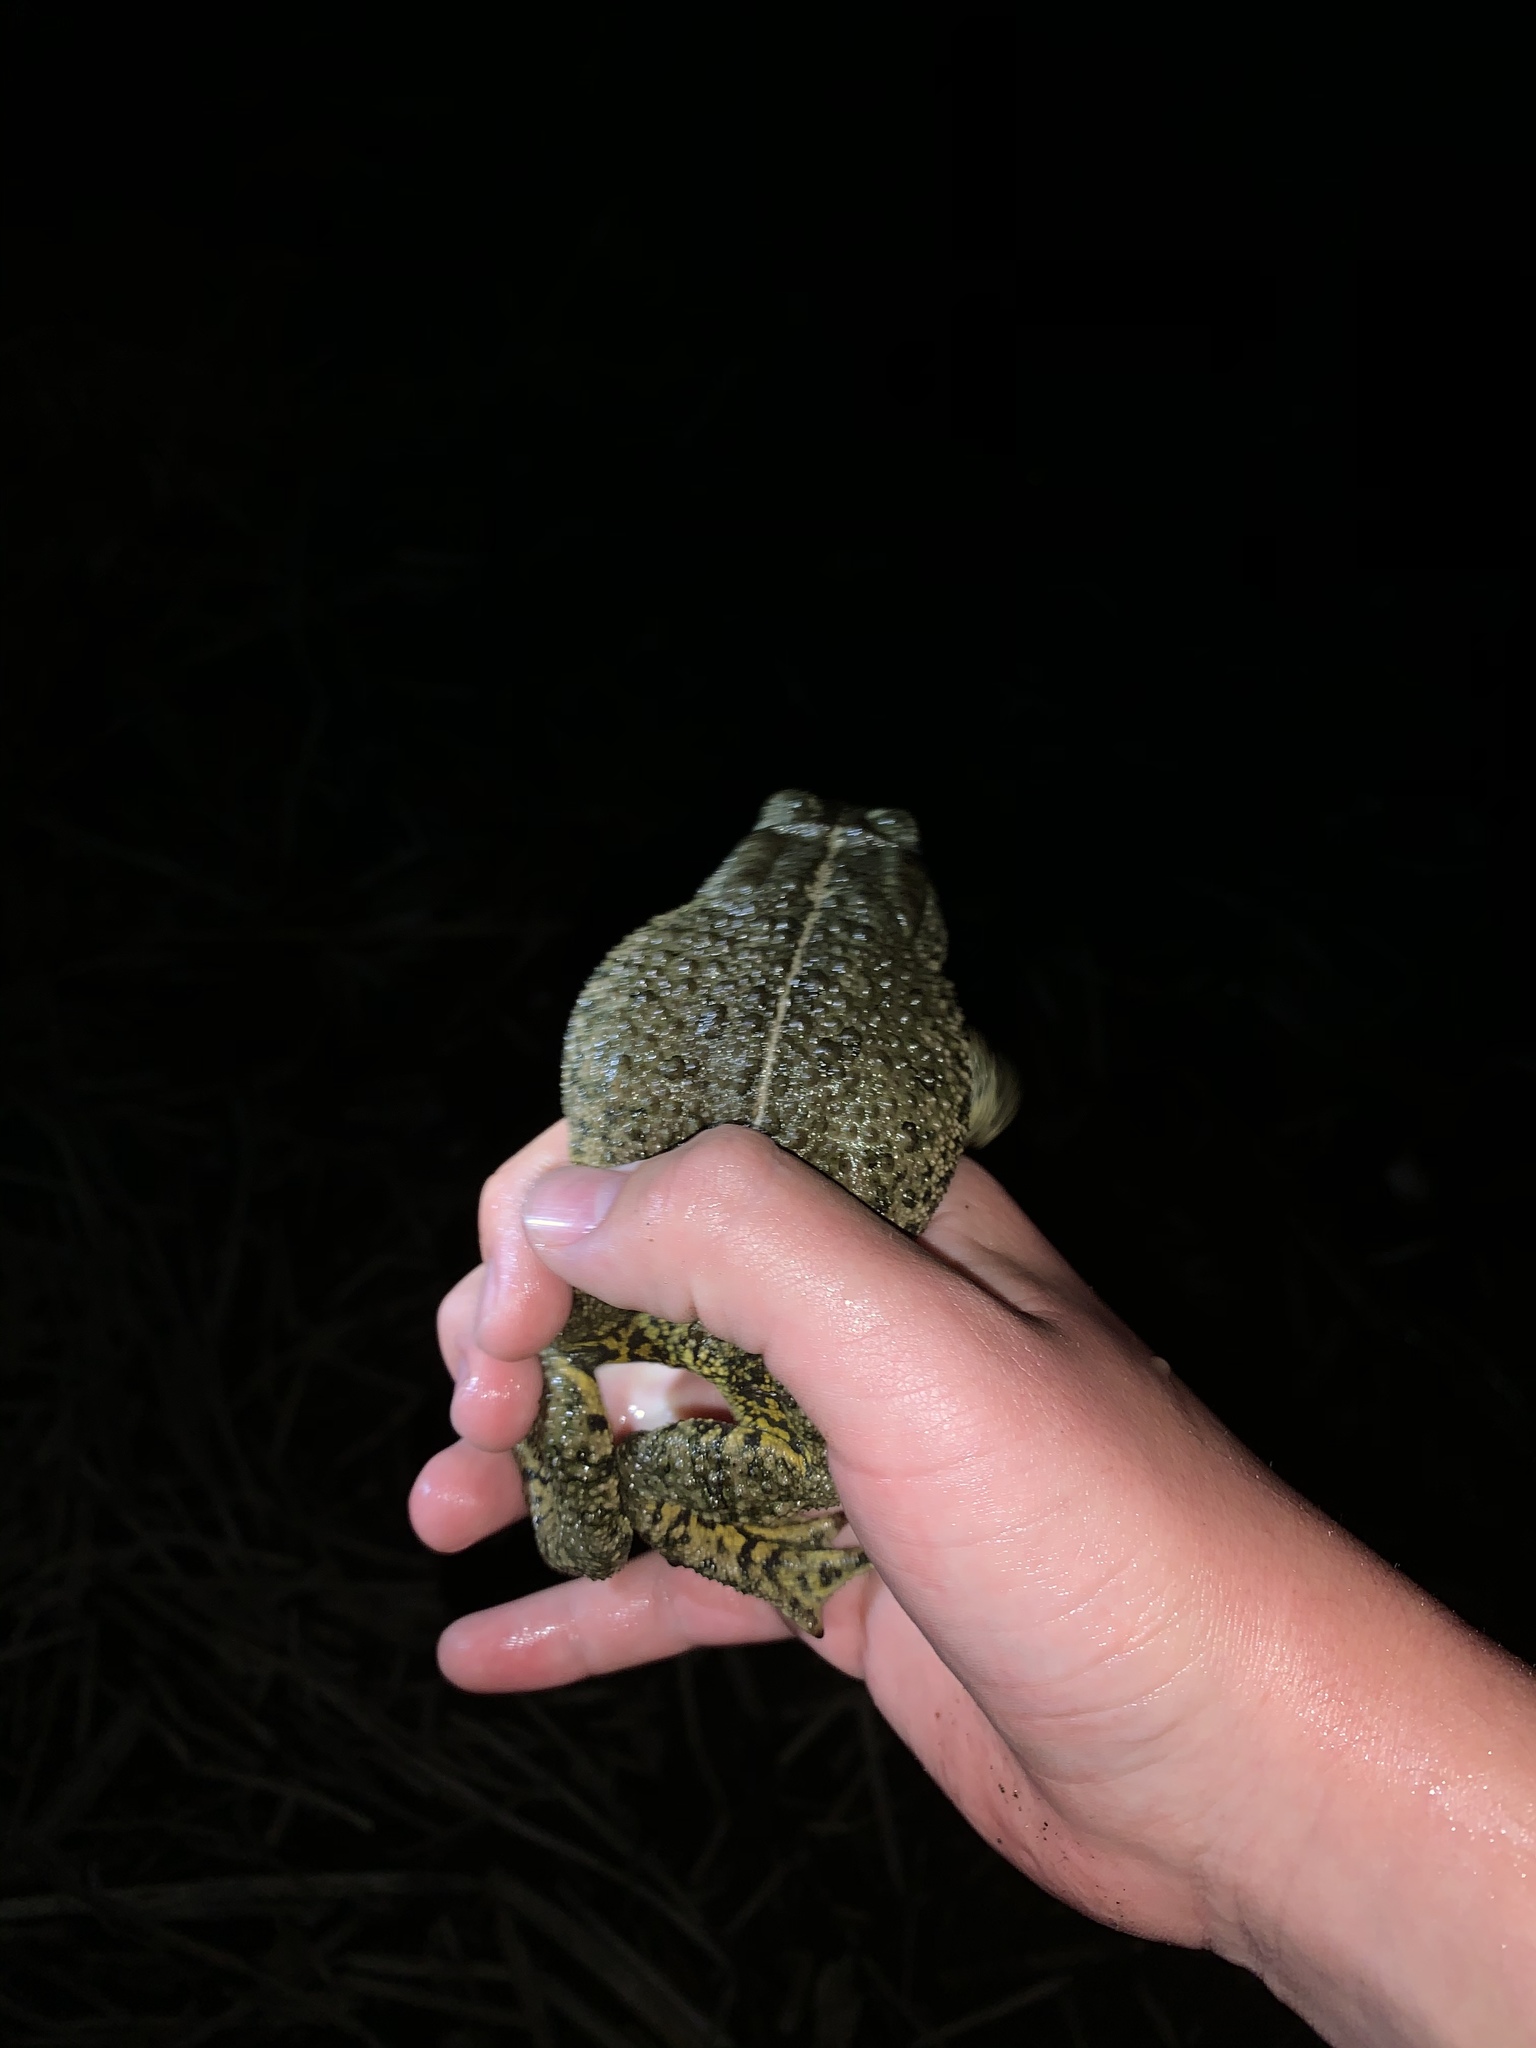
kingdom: Animalia
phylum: Chordata
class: Amphibia
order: Anura
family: Bufonidae
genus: Anaxyrus
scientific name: Anaxyrus woodhousii
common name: Woodhouse's toad
